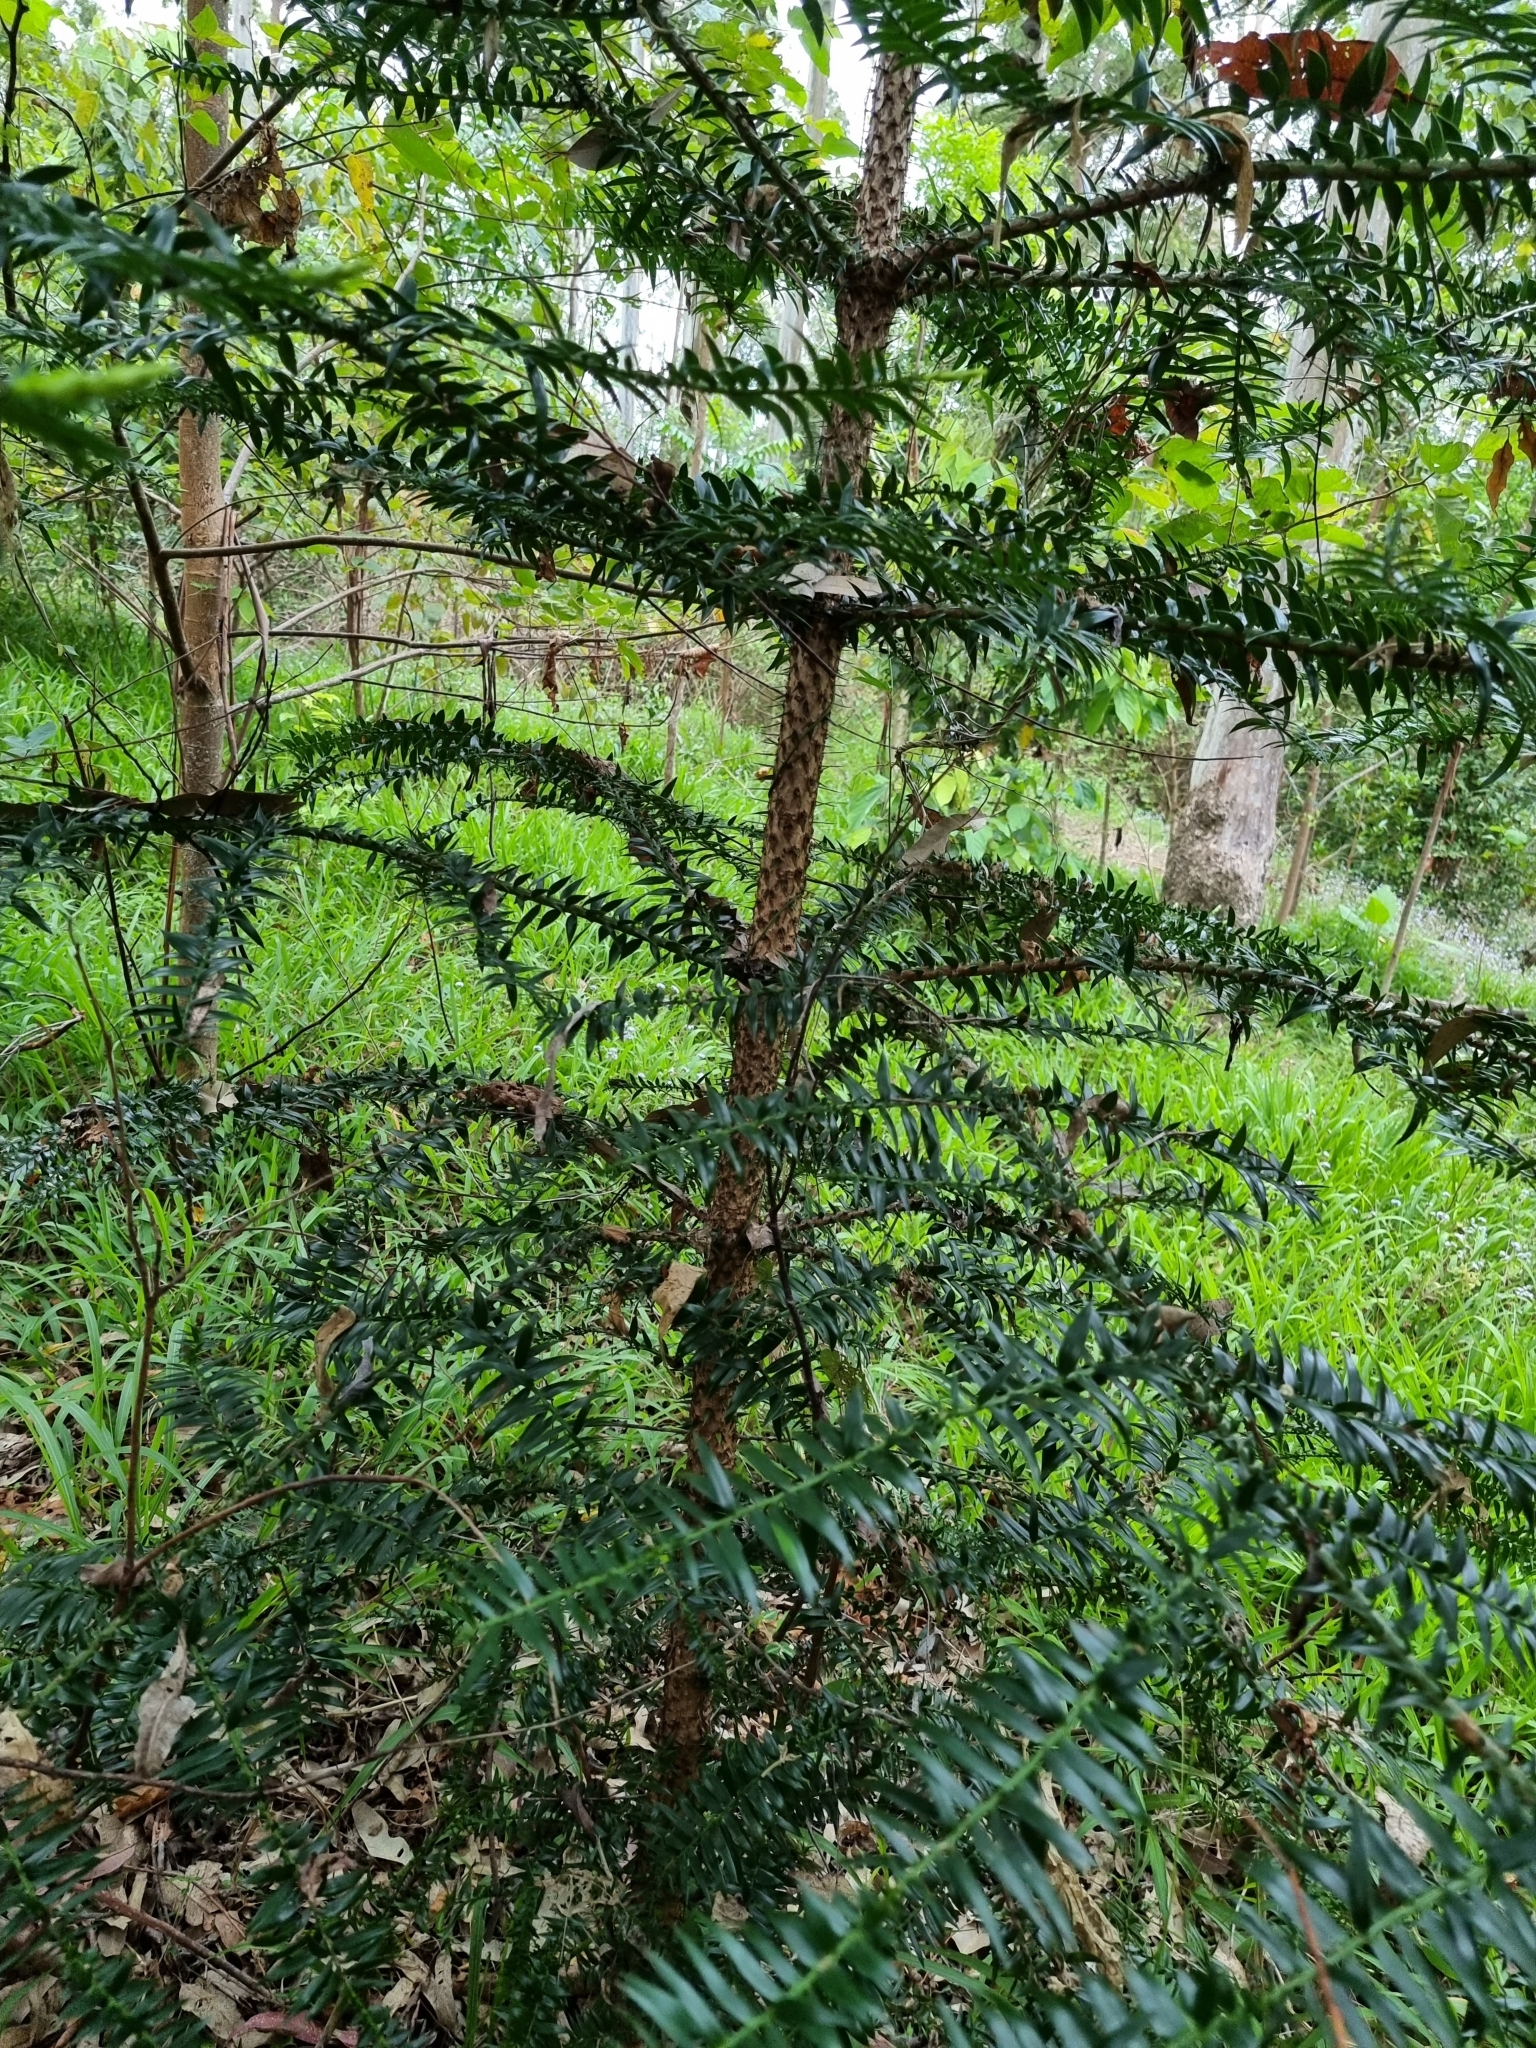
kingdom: Plantae
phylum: Tracheophyta
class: Pinopsida
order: Pinales
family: Araucariaceae
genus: Araucaria
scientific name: Araucaria bidwillii
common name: Moreton-bay-pine
